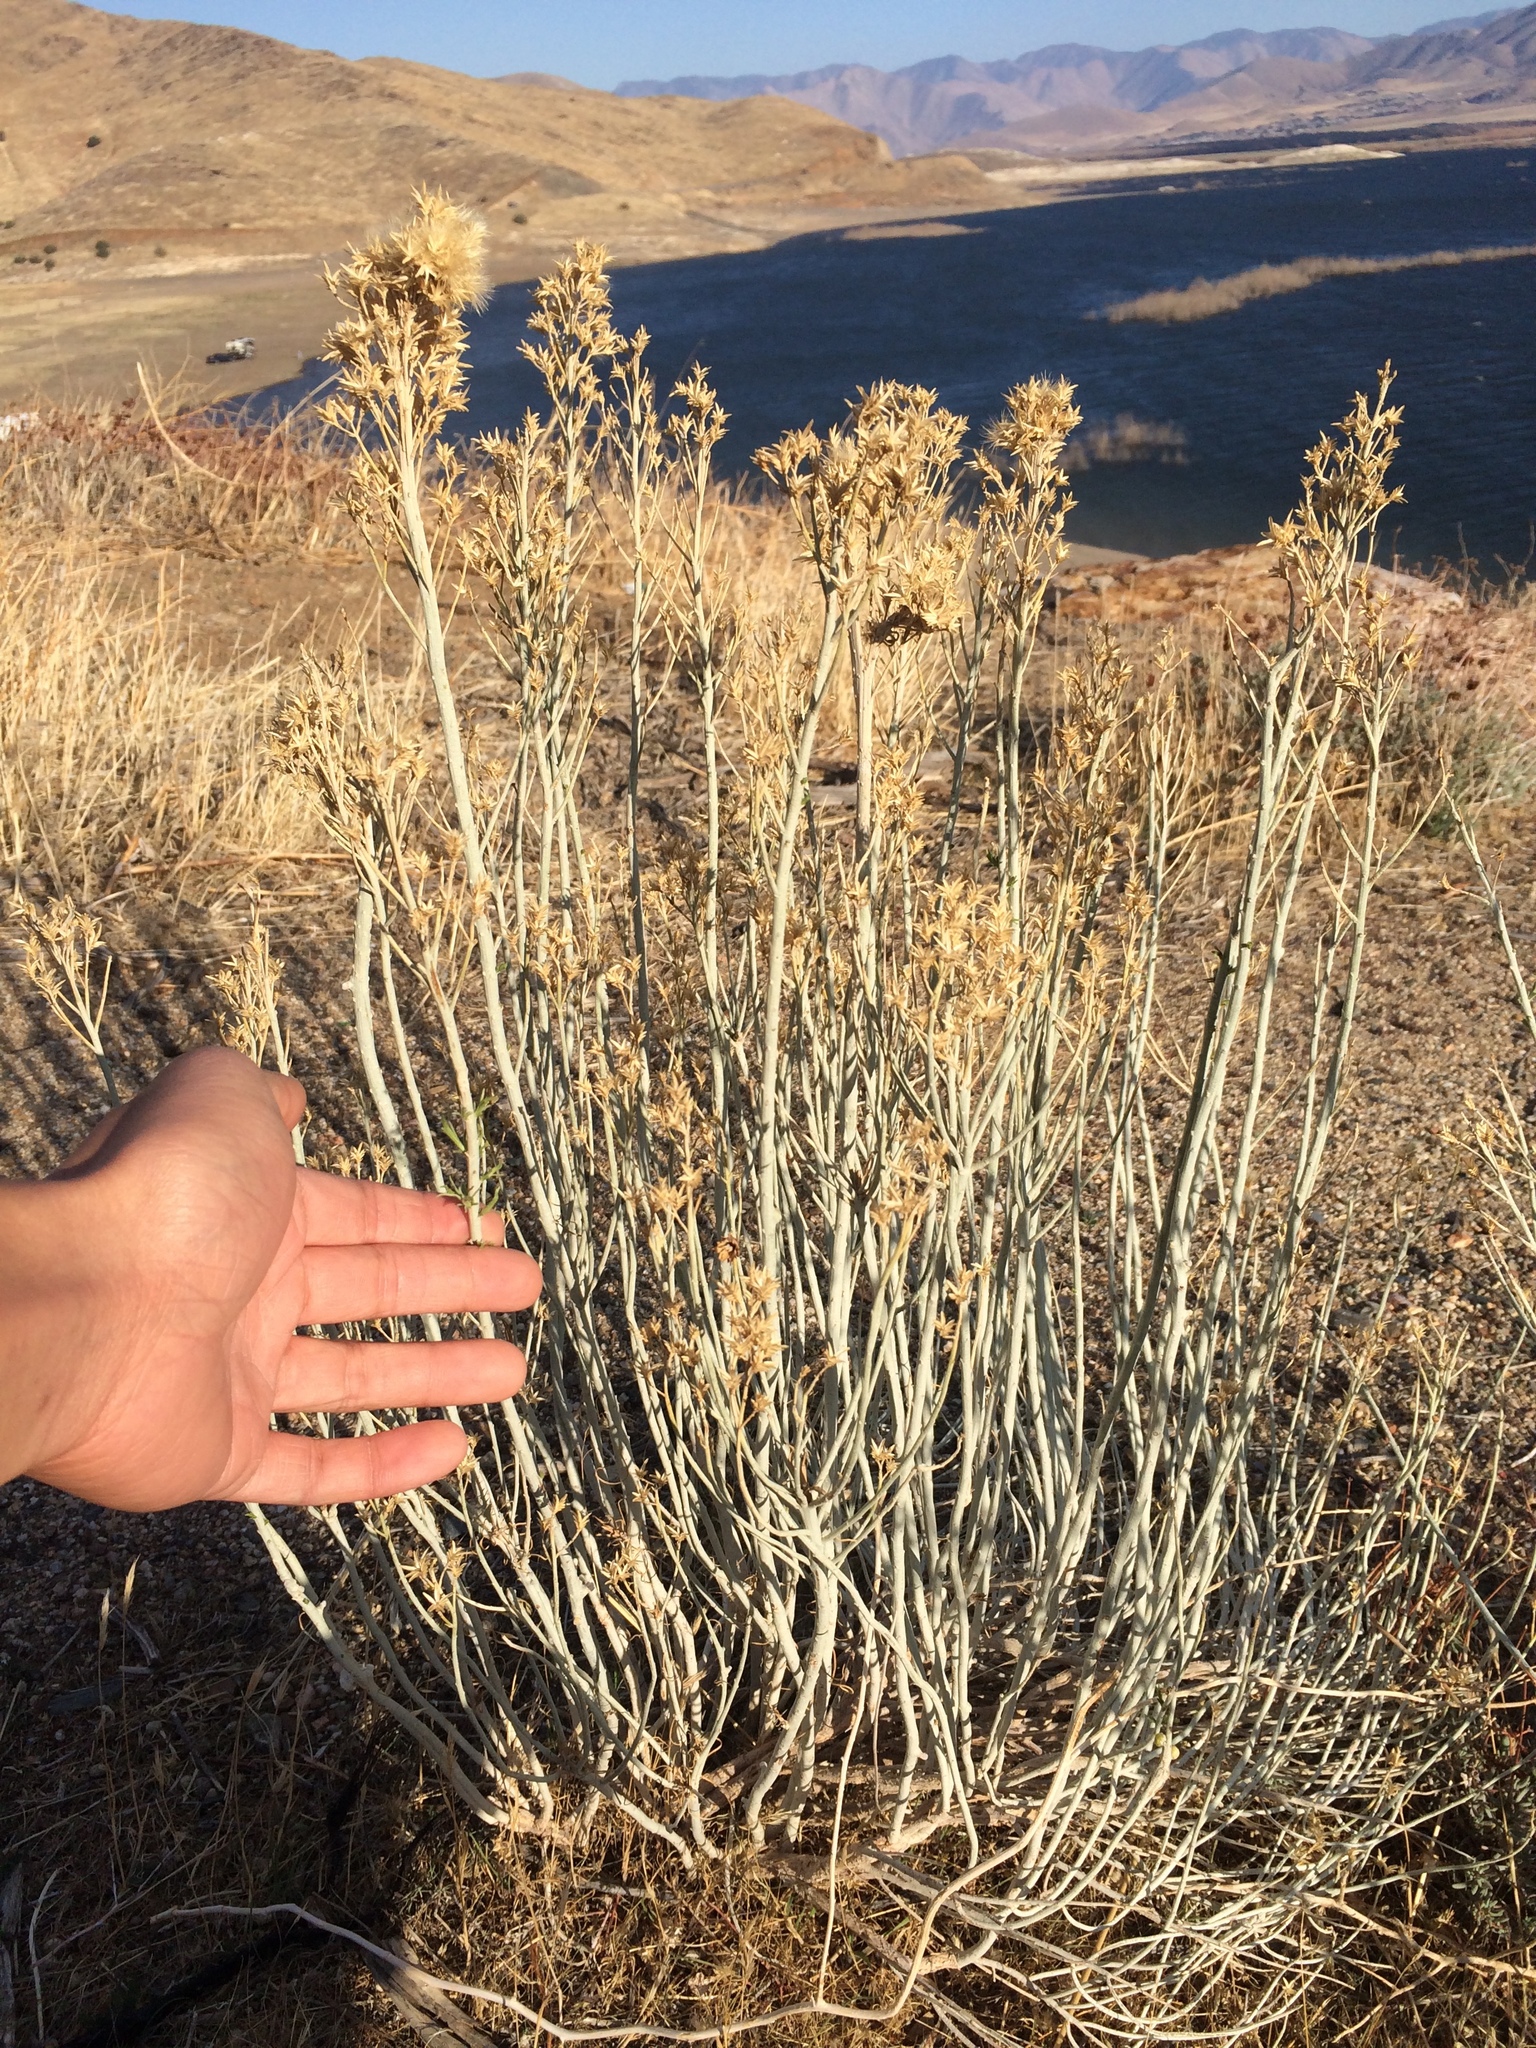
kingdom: Plantae
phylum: Tracheophyta
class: Magnoliopsida
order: Asterales
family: Asteraceae
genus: Ericameria
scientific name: Ericameria nauseosa
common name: Rubber rabbitbrush
